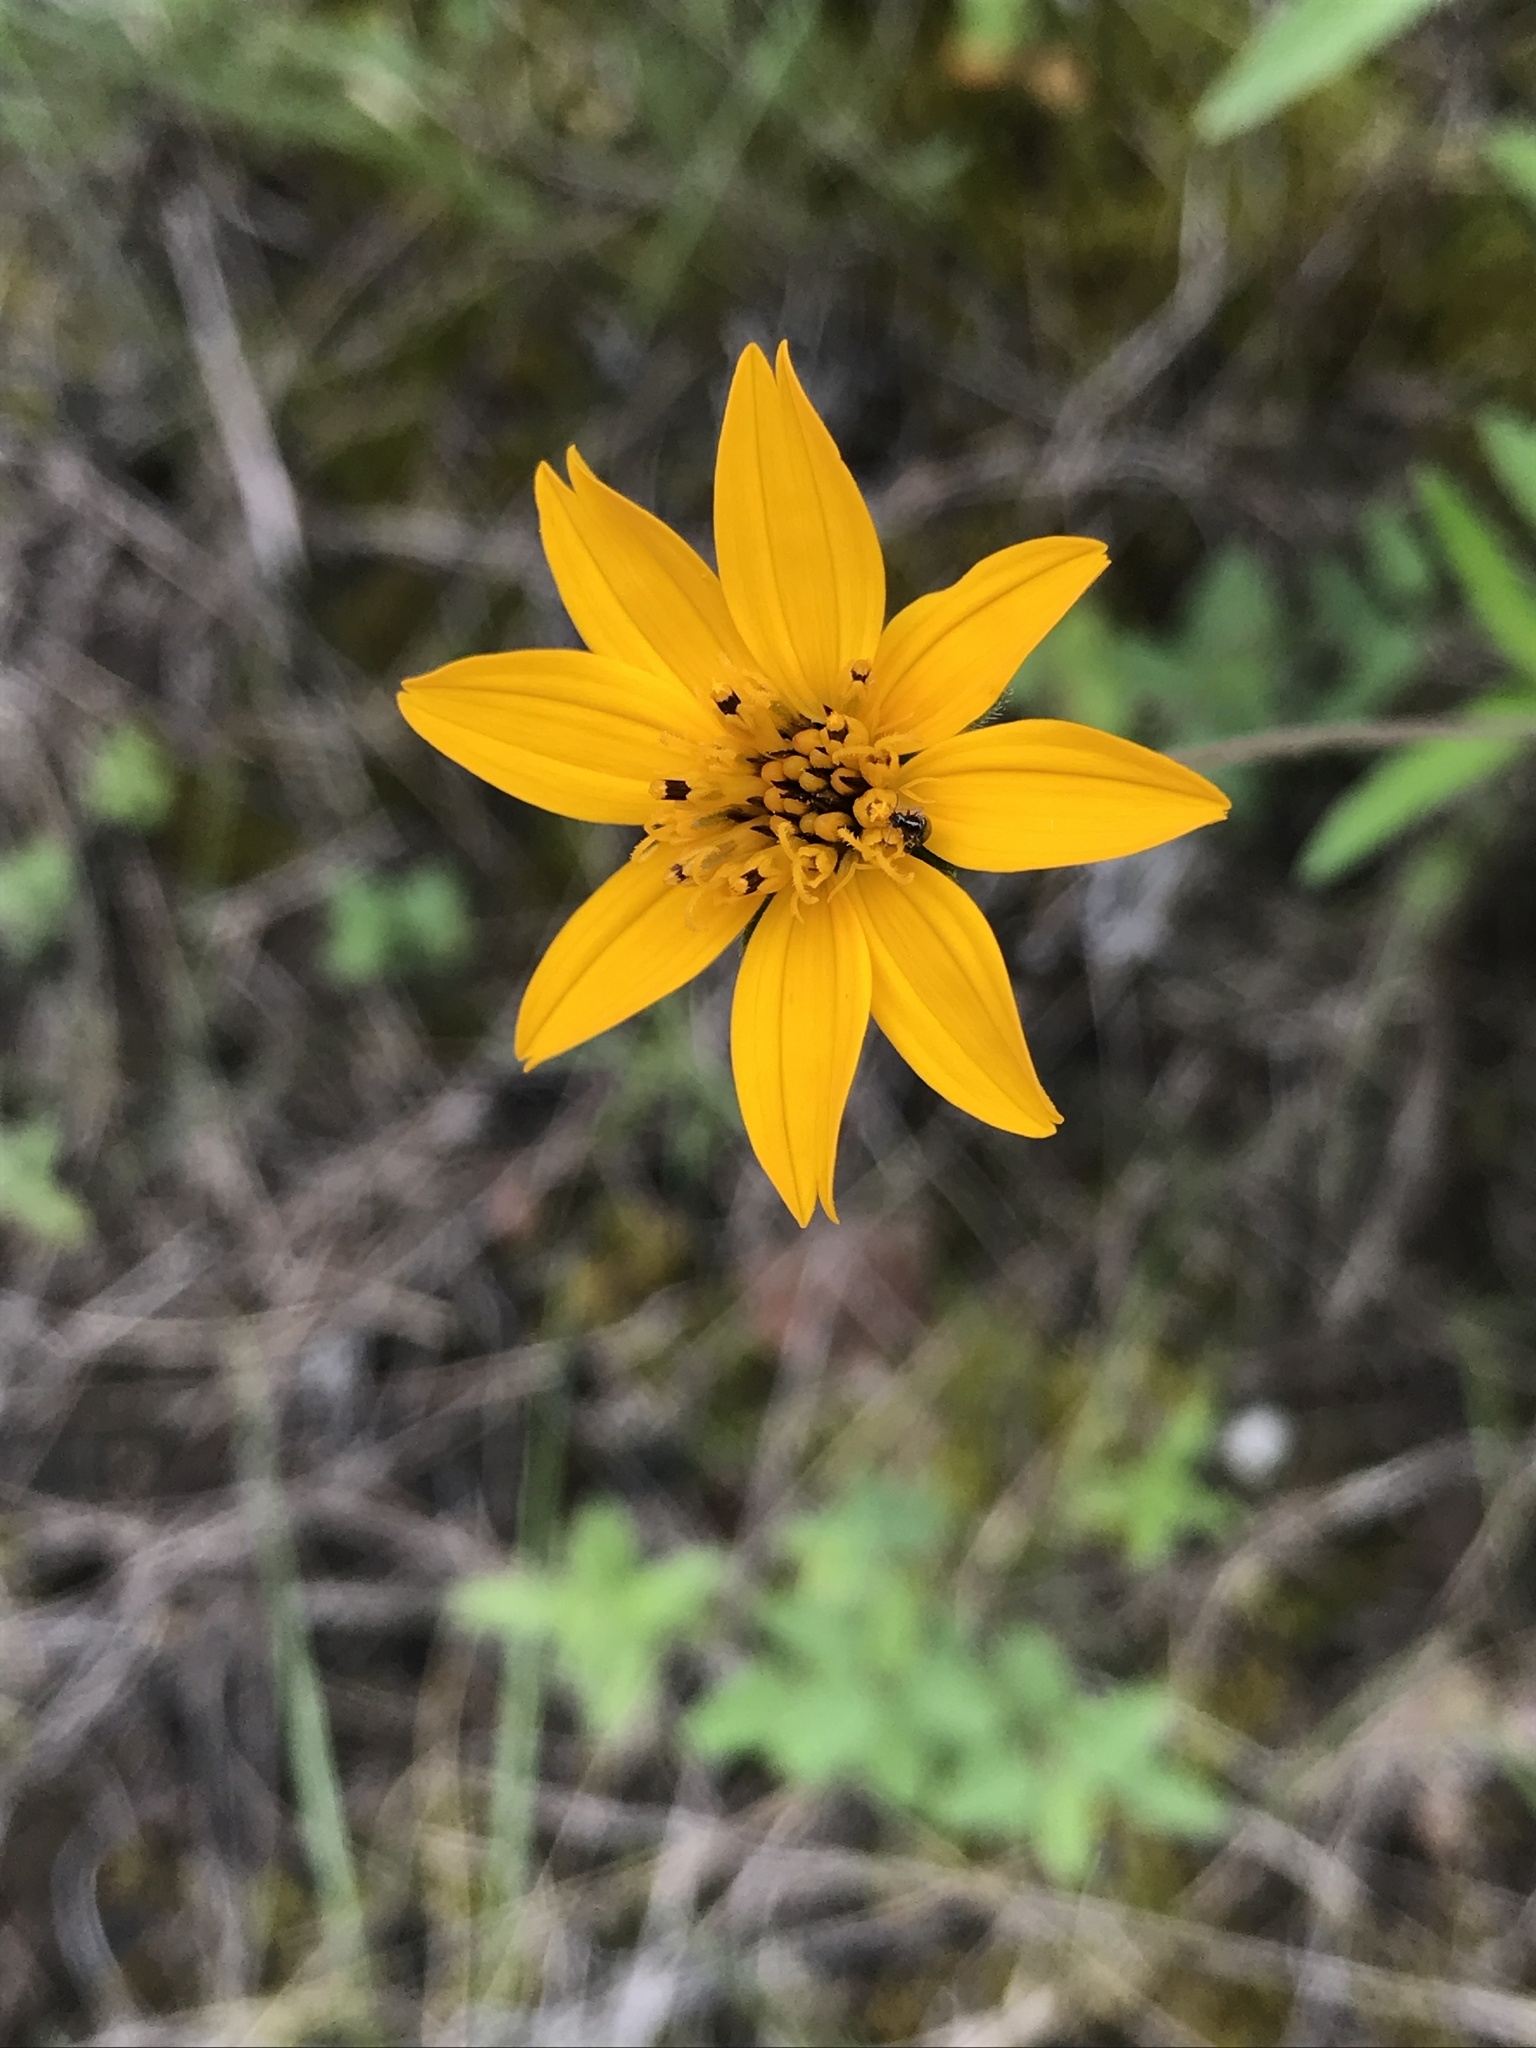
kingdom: Plantae
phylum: Tracheophyta
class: Magnoliopsida
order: Asterales
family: Asteraceae
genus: Wedelia
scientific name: Wedelia acapulcensis
